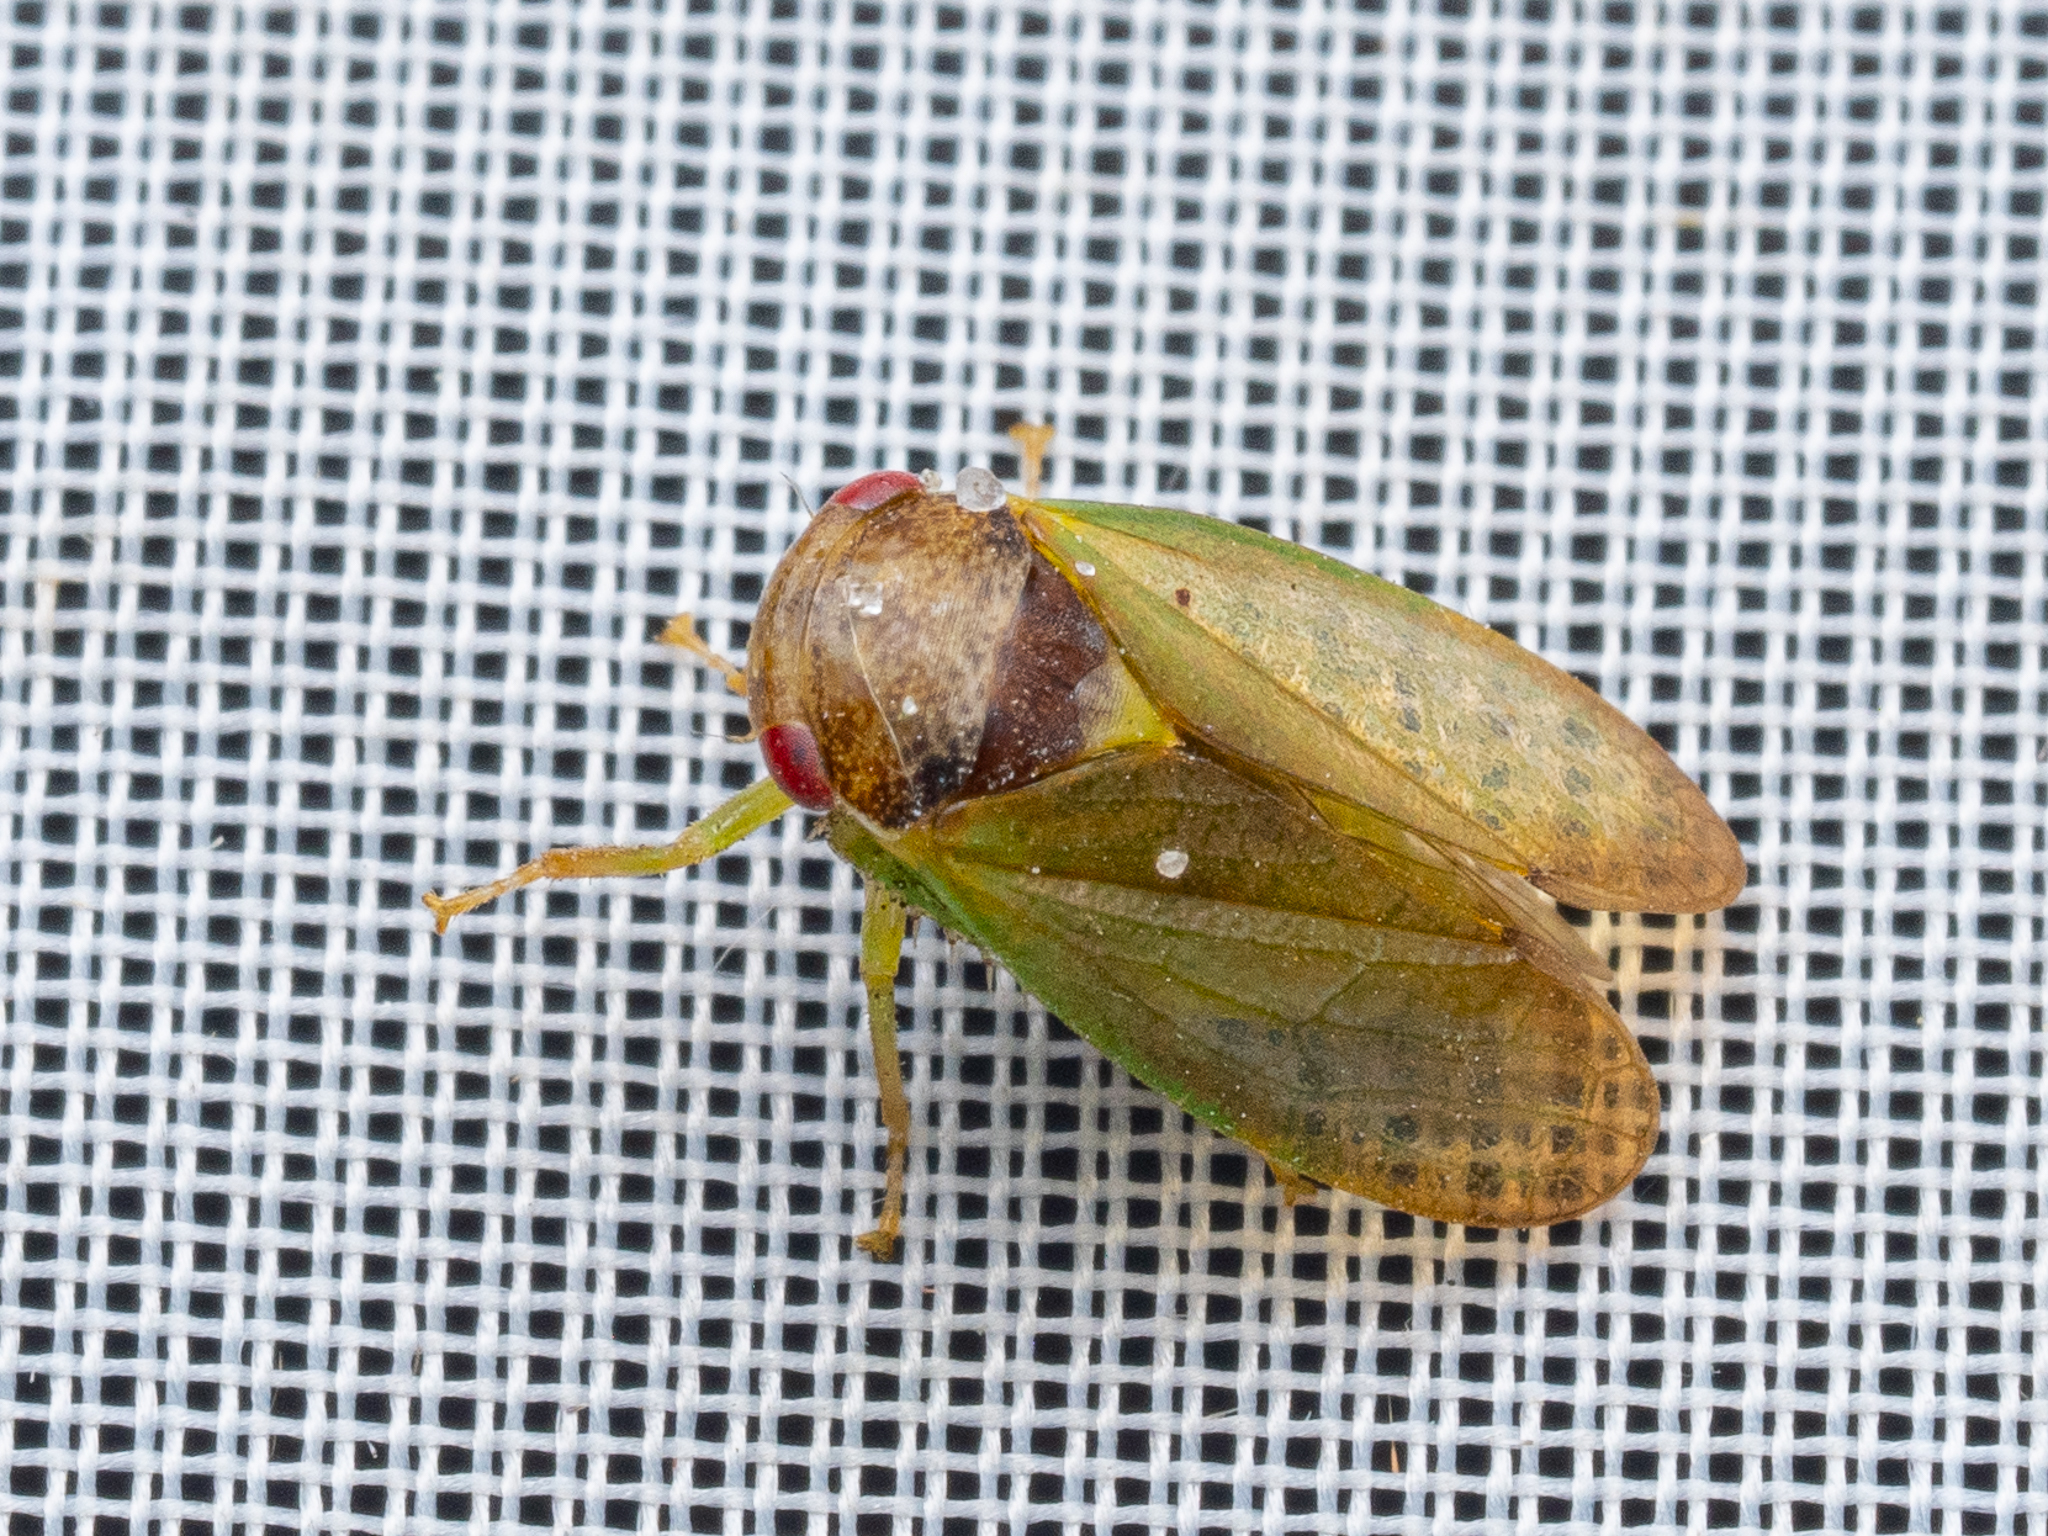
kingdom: Animalia
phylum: Arthropoda
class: Insecta
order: Hemiptera
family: Cicadellidae
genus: Iassus
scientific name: Iassus lanio
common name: Leafhopper
